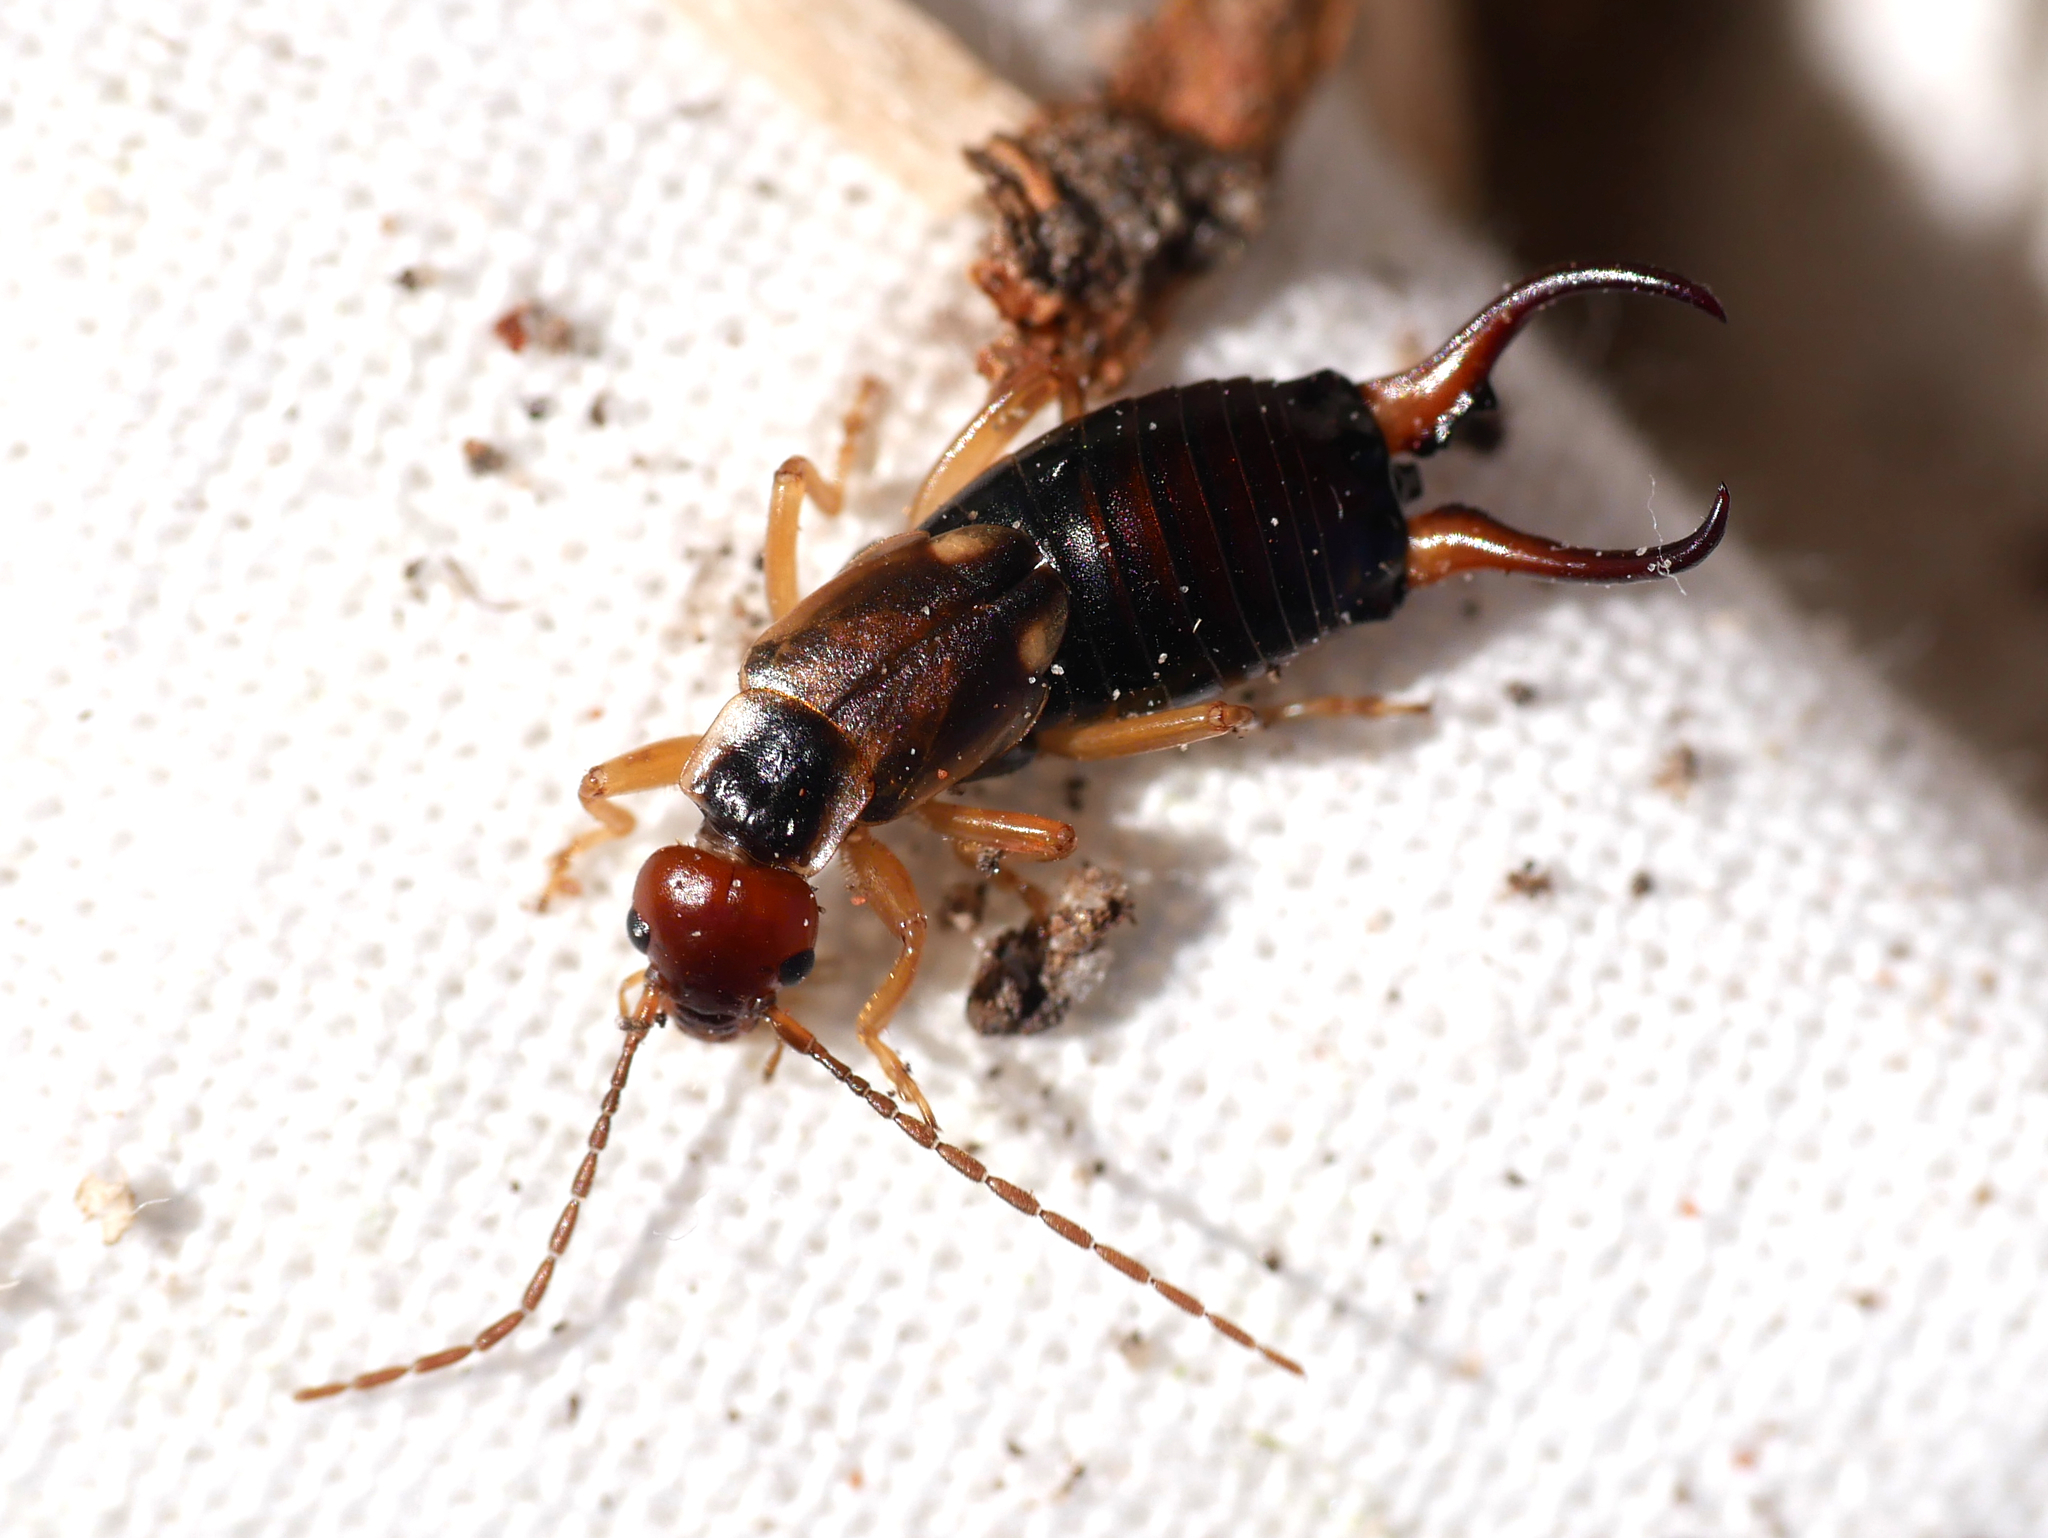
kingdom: Animalia
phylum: Arthropoda
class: Insecta
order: Dermaptera
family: Forficulidae
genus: Forficula
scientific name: Forficula
